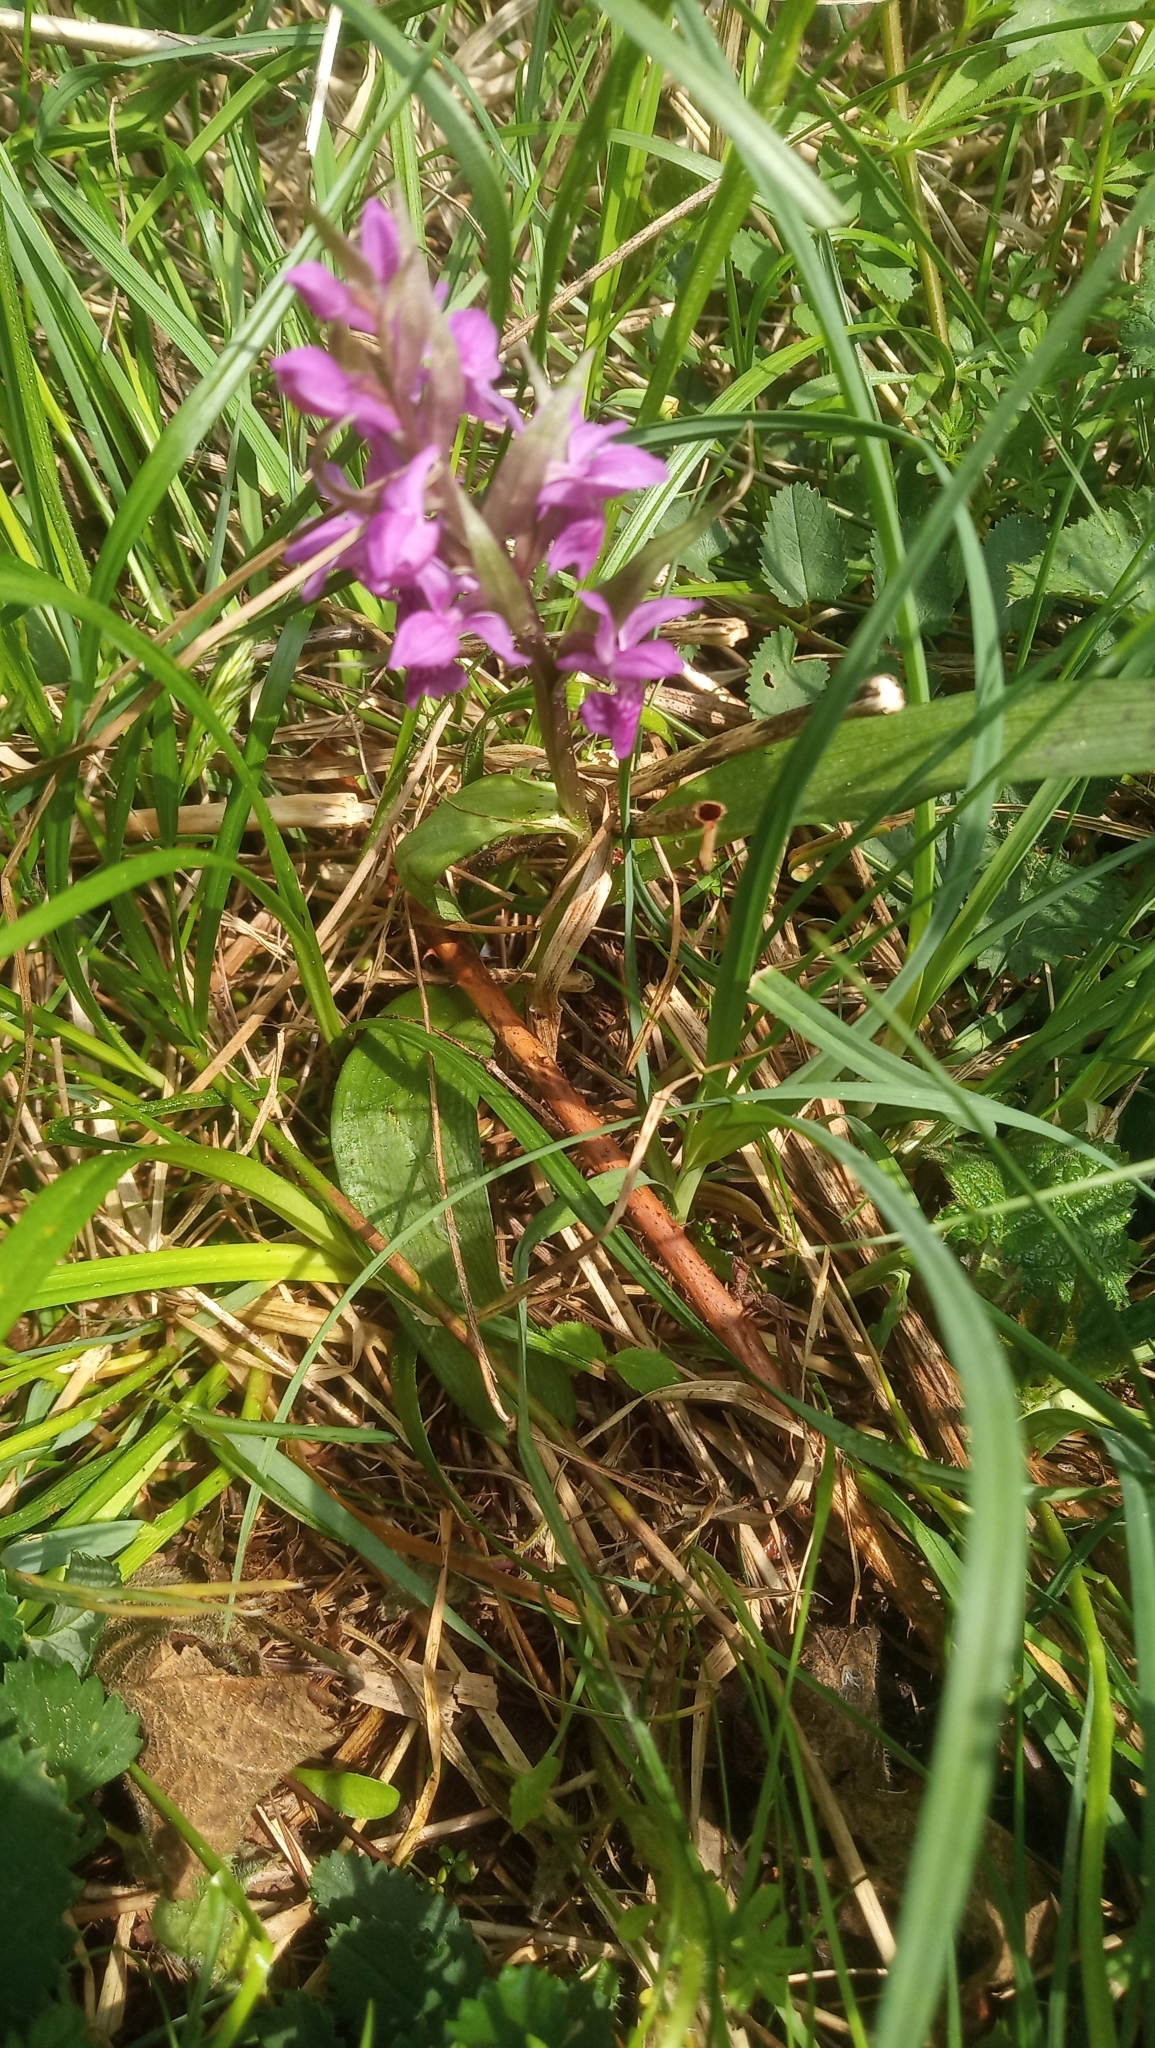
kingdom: Plantae
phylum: Tracheophyta
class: Liliopsida
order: Asparagales
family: Orchidaceae
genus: Dactylorhiza
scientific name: Dactylorhiza majalis
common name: Marsh orchid
